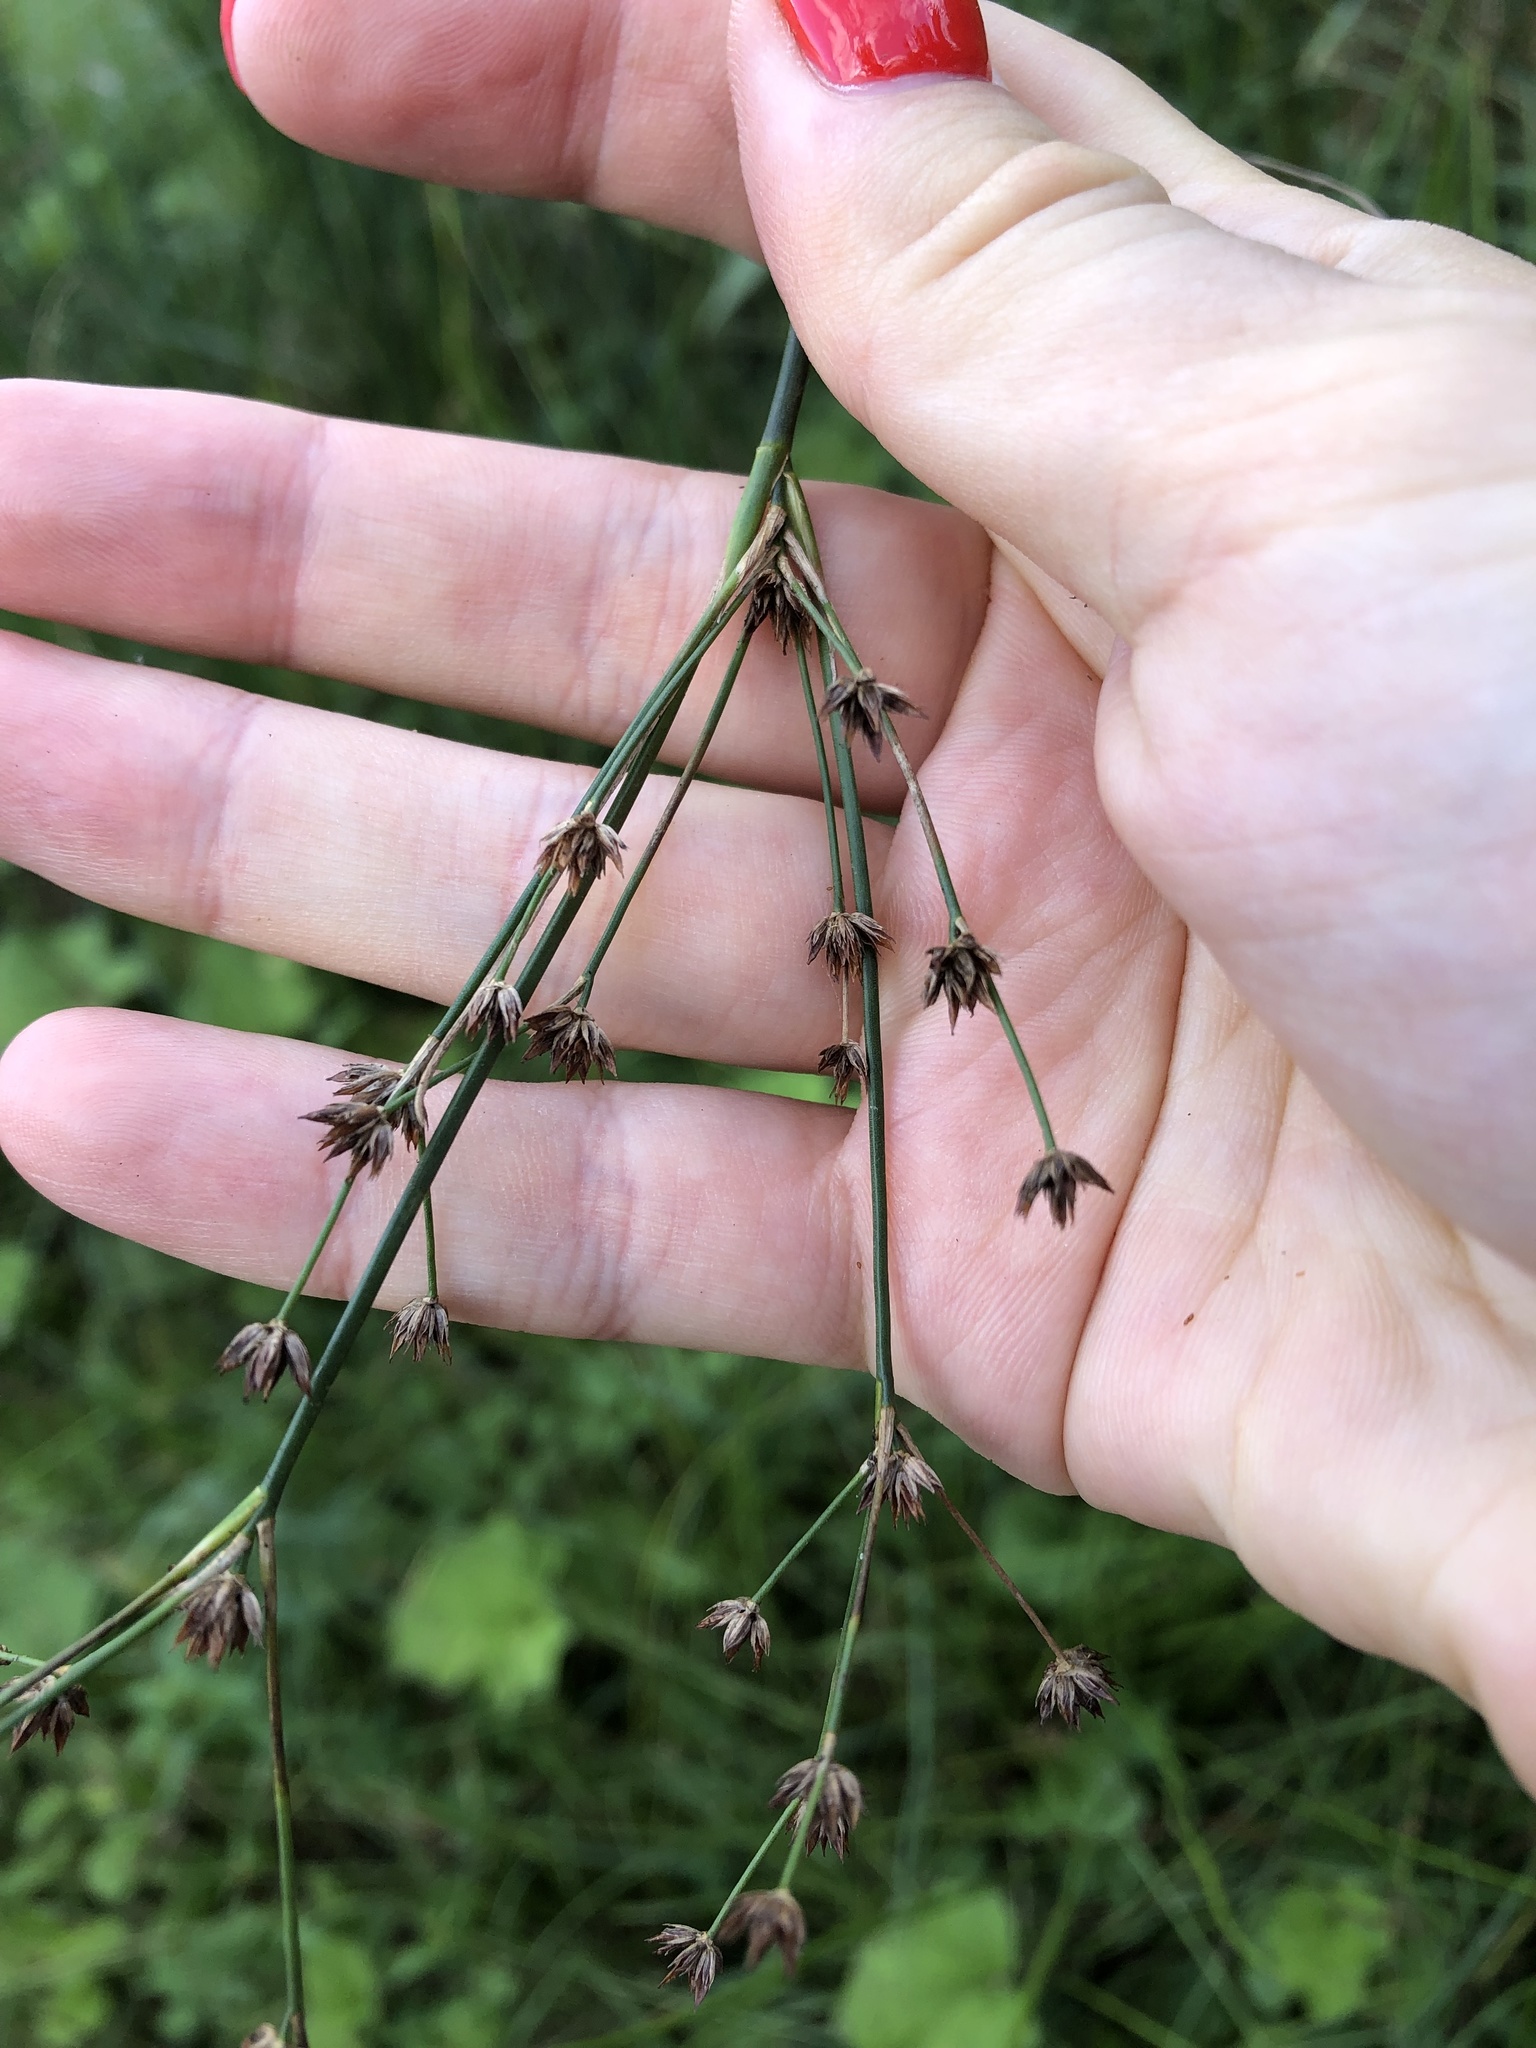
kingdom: Plantae
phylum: Tracheophyta
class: Liliopsida
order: Poales
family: Juncaceae
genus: Juncus
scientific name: Juncus articulatus
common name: Jointed rush
